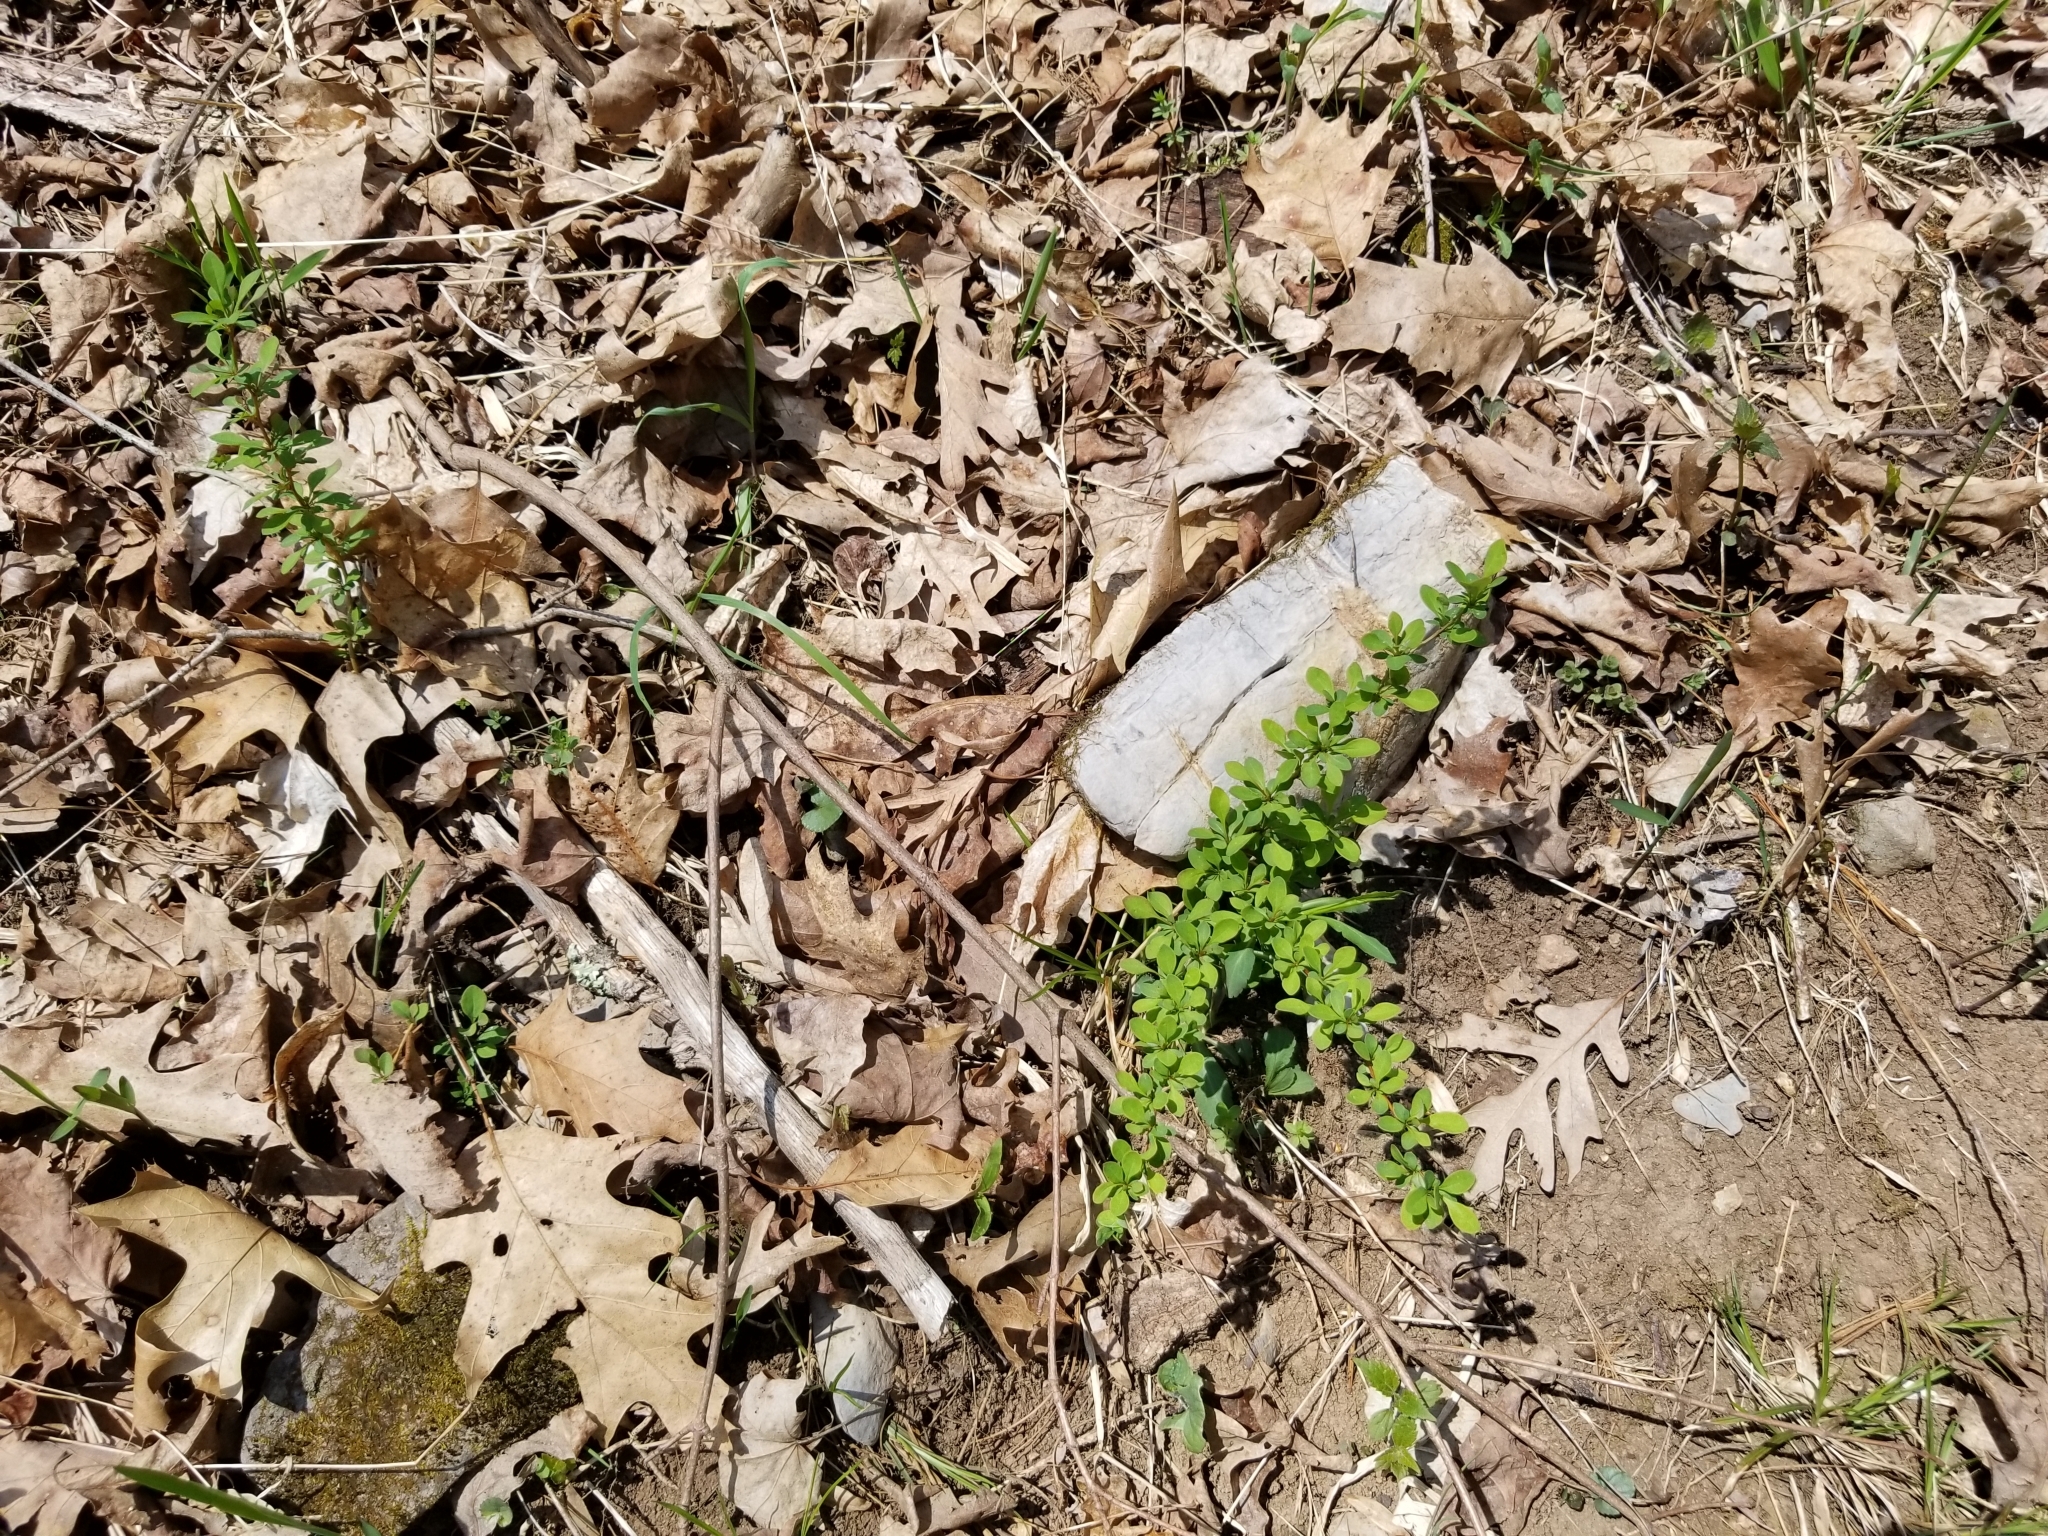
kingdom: Plantae
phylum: Tracheophyta
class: Magnoliopsida
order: Ranunculales
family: Berberidaceae
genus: Berberis
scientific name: Berberis thunbergii
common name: Japanese barberry
